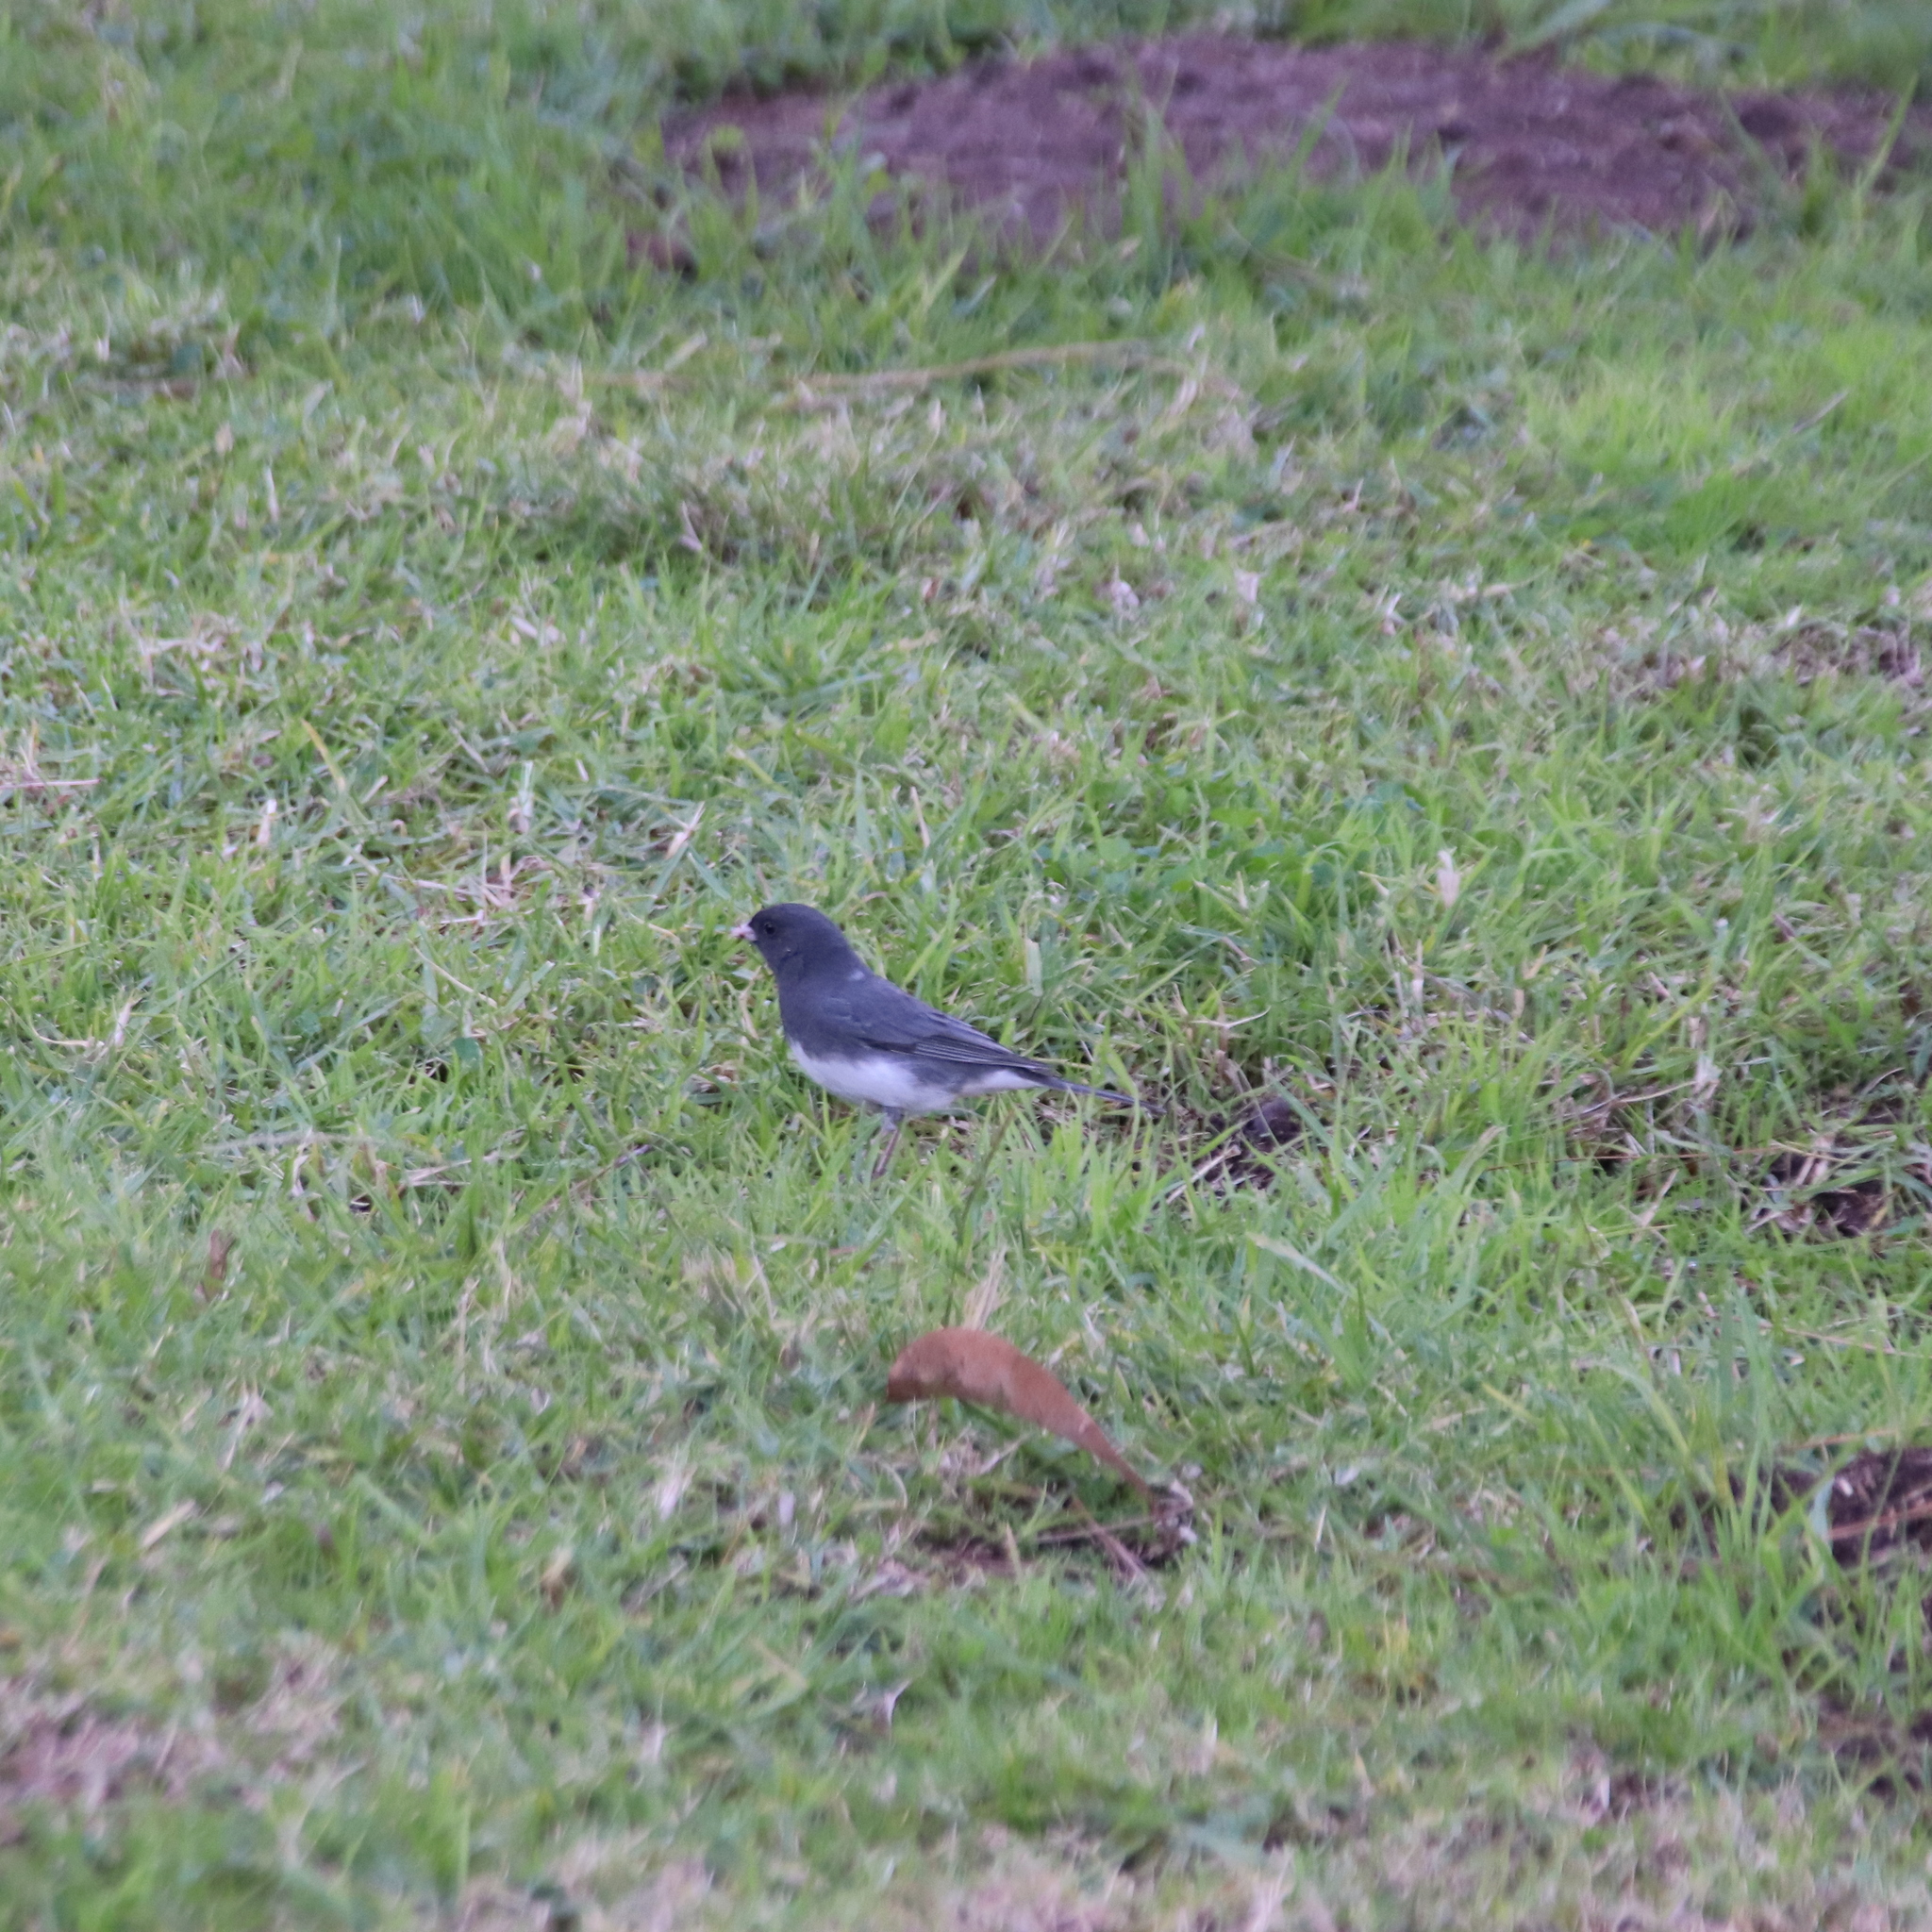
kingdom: Animalia
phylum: Chordata
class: Aves
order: Passeriformes
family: Passerellidae
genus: Junco
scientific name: Junco hyemalis
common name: Dark-eyed junco
